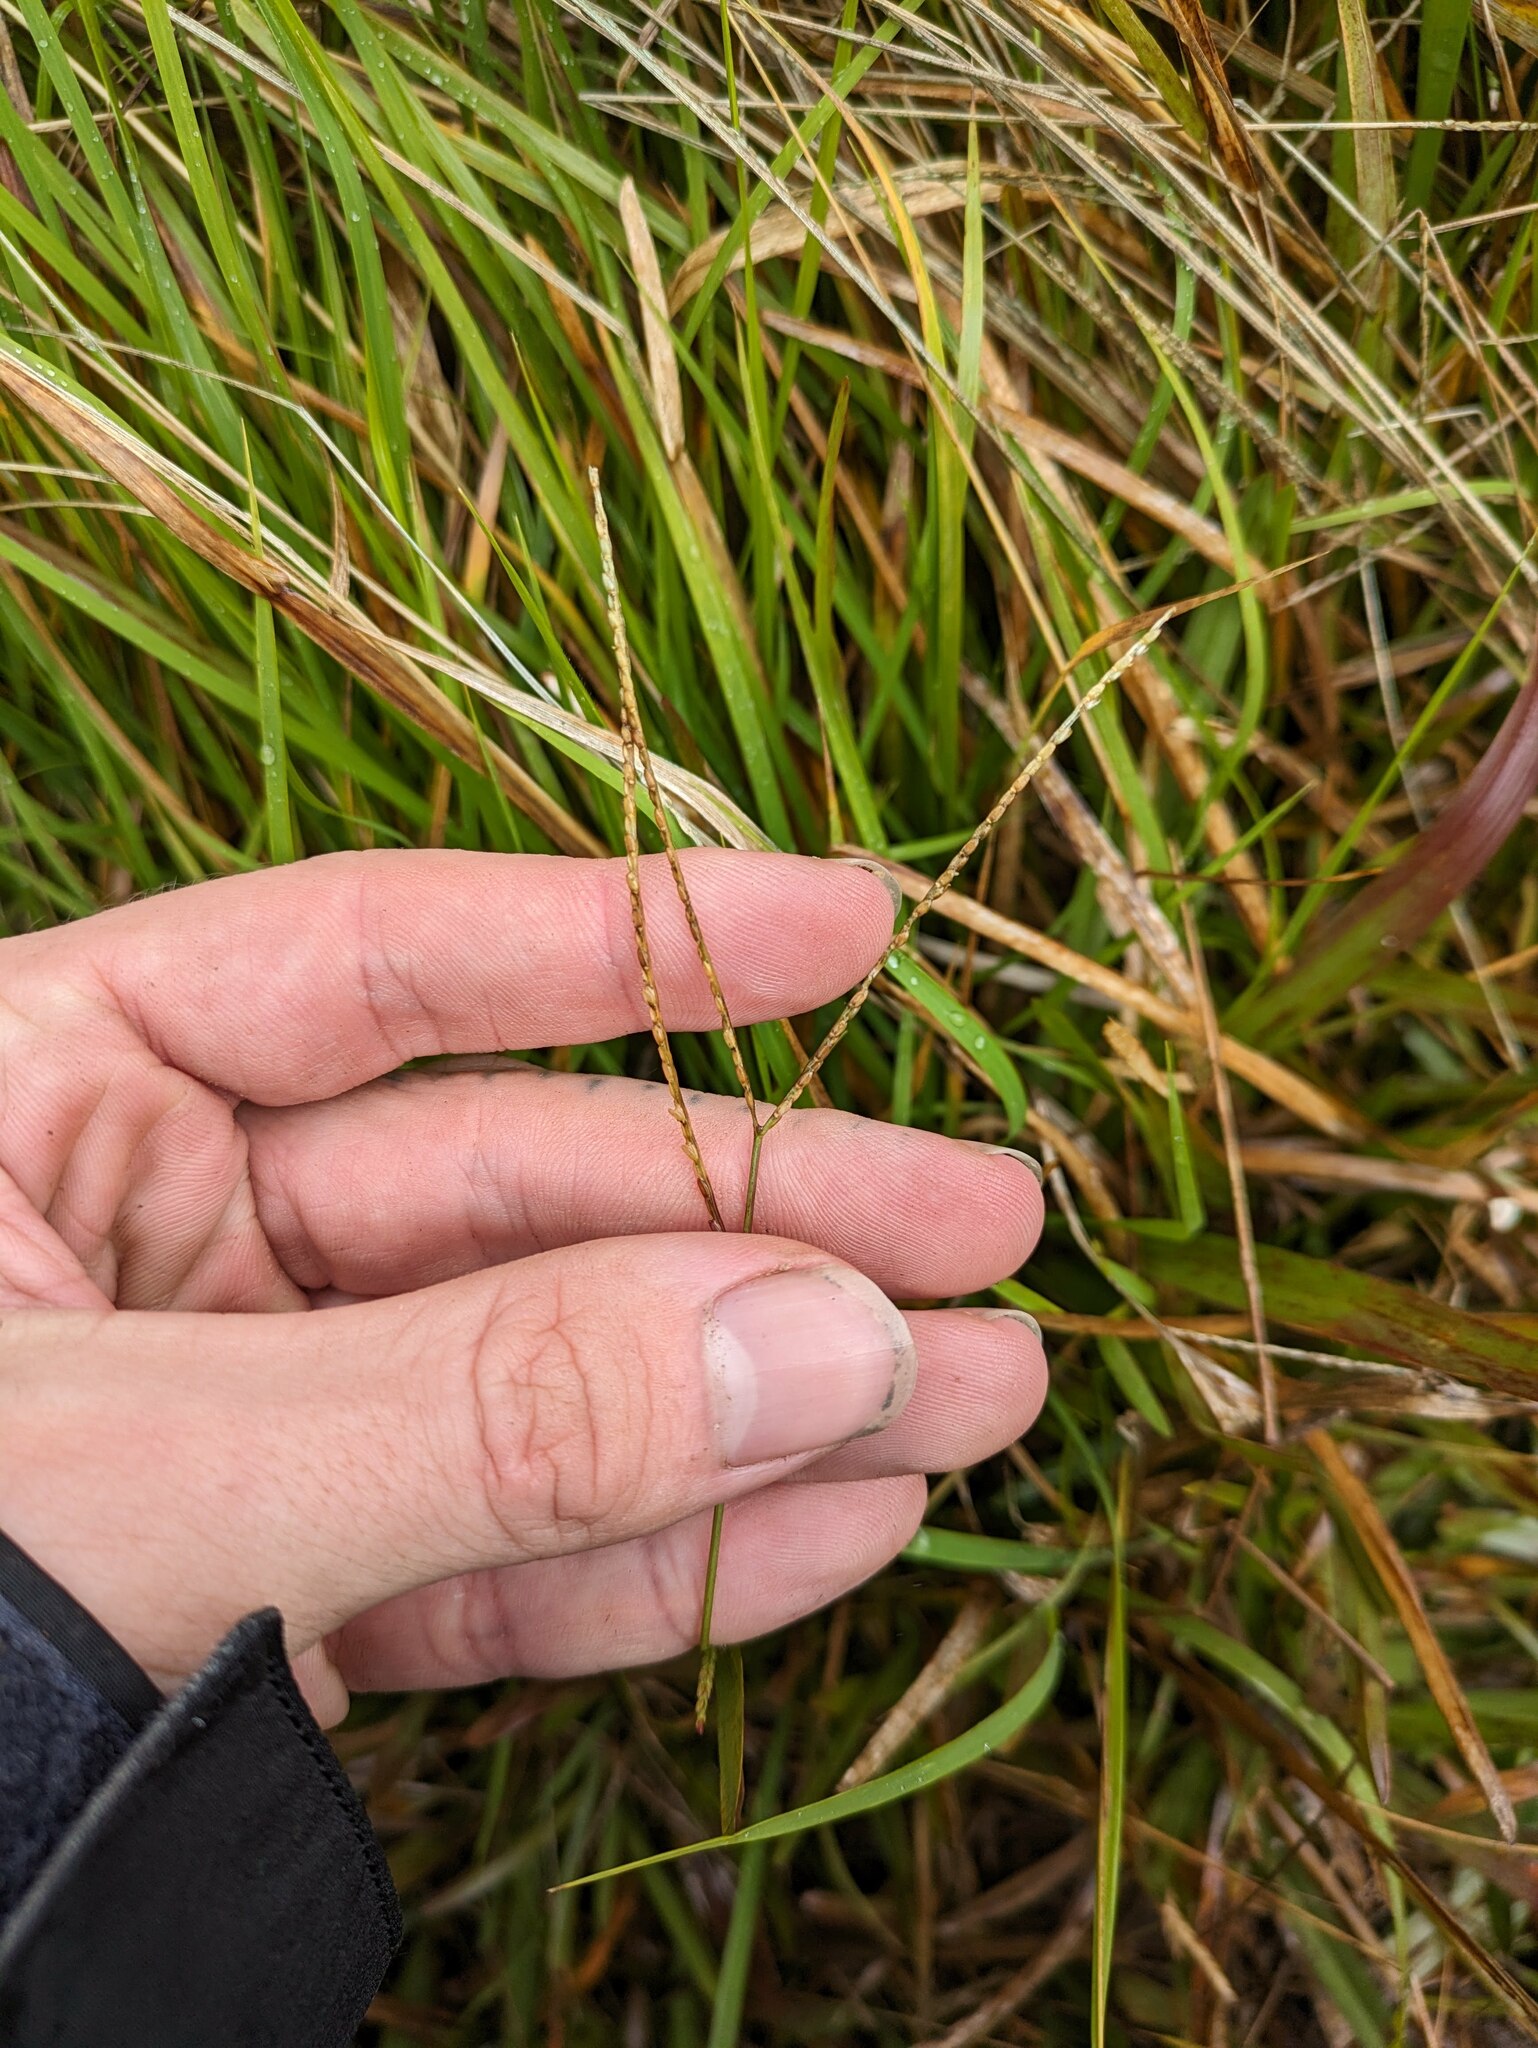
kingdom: Plantae
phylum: Tracheophyta
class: Liliopsida
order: Poales
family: Poaceae
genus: Axonopus
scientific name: Axonopus fissifolius
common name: Common carpetgrass
